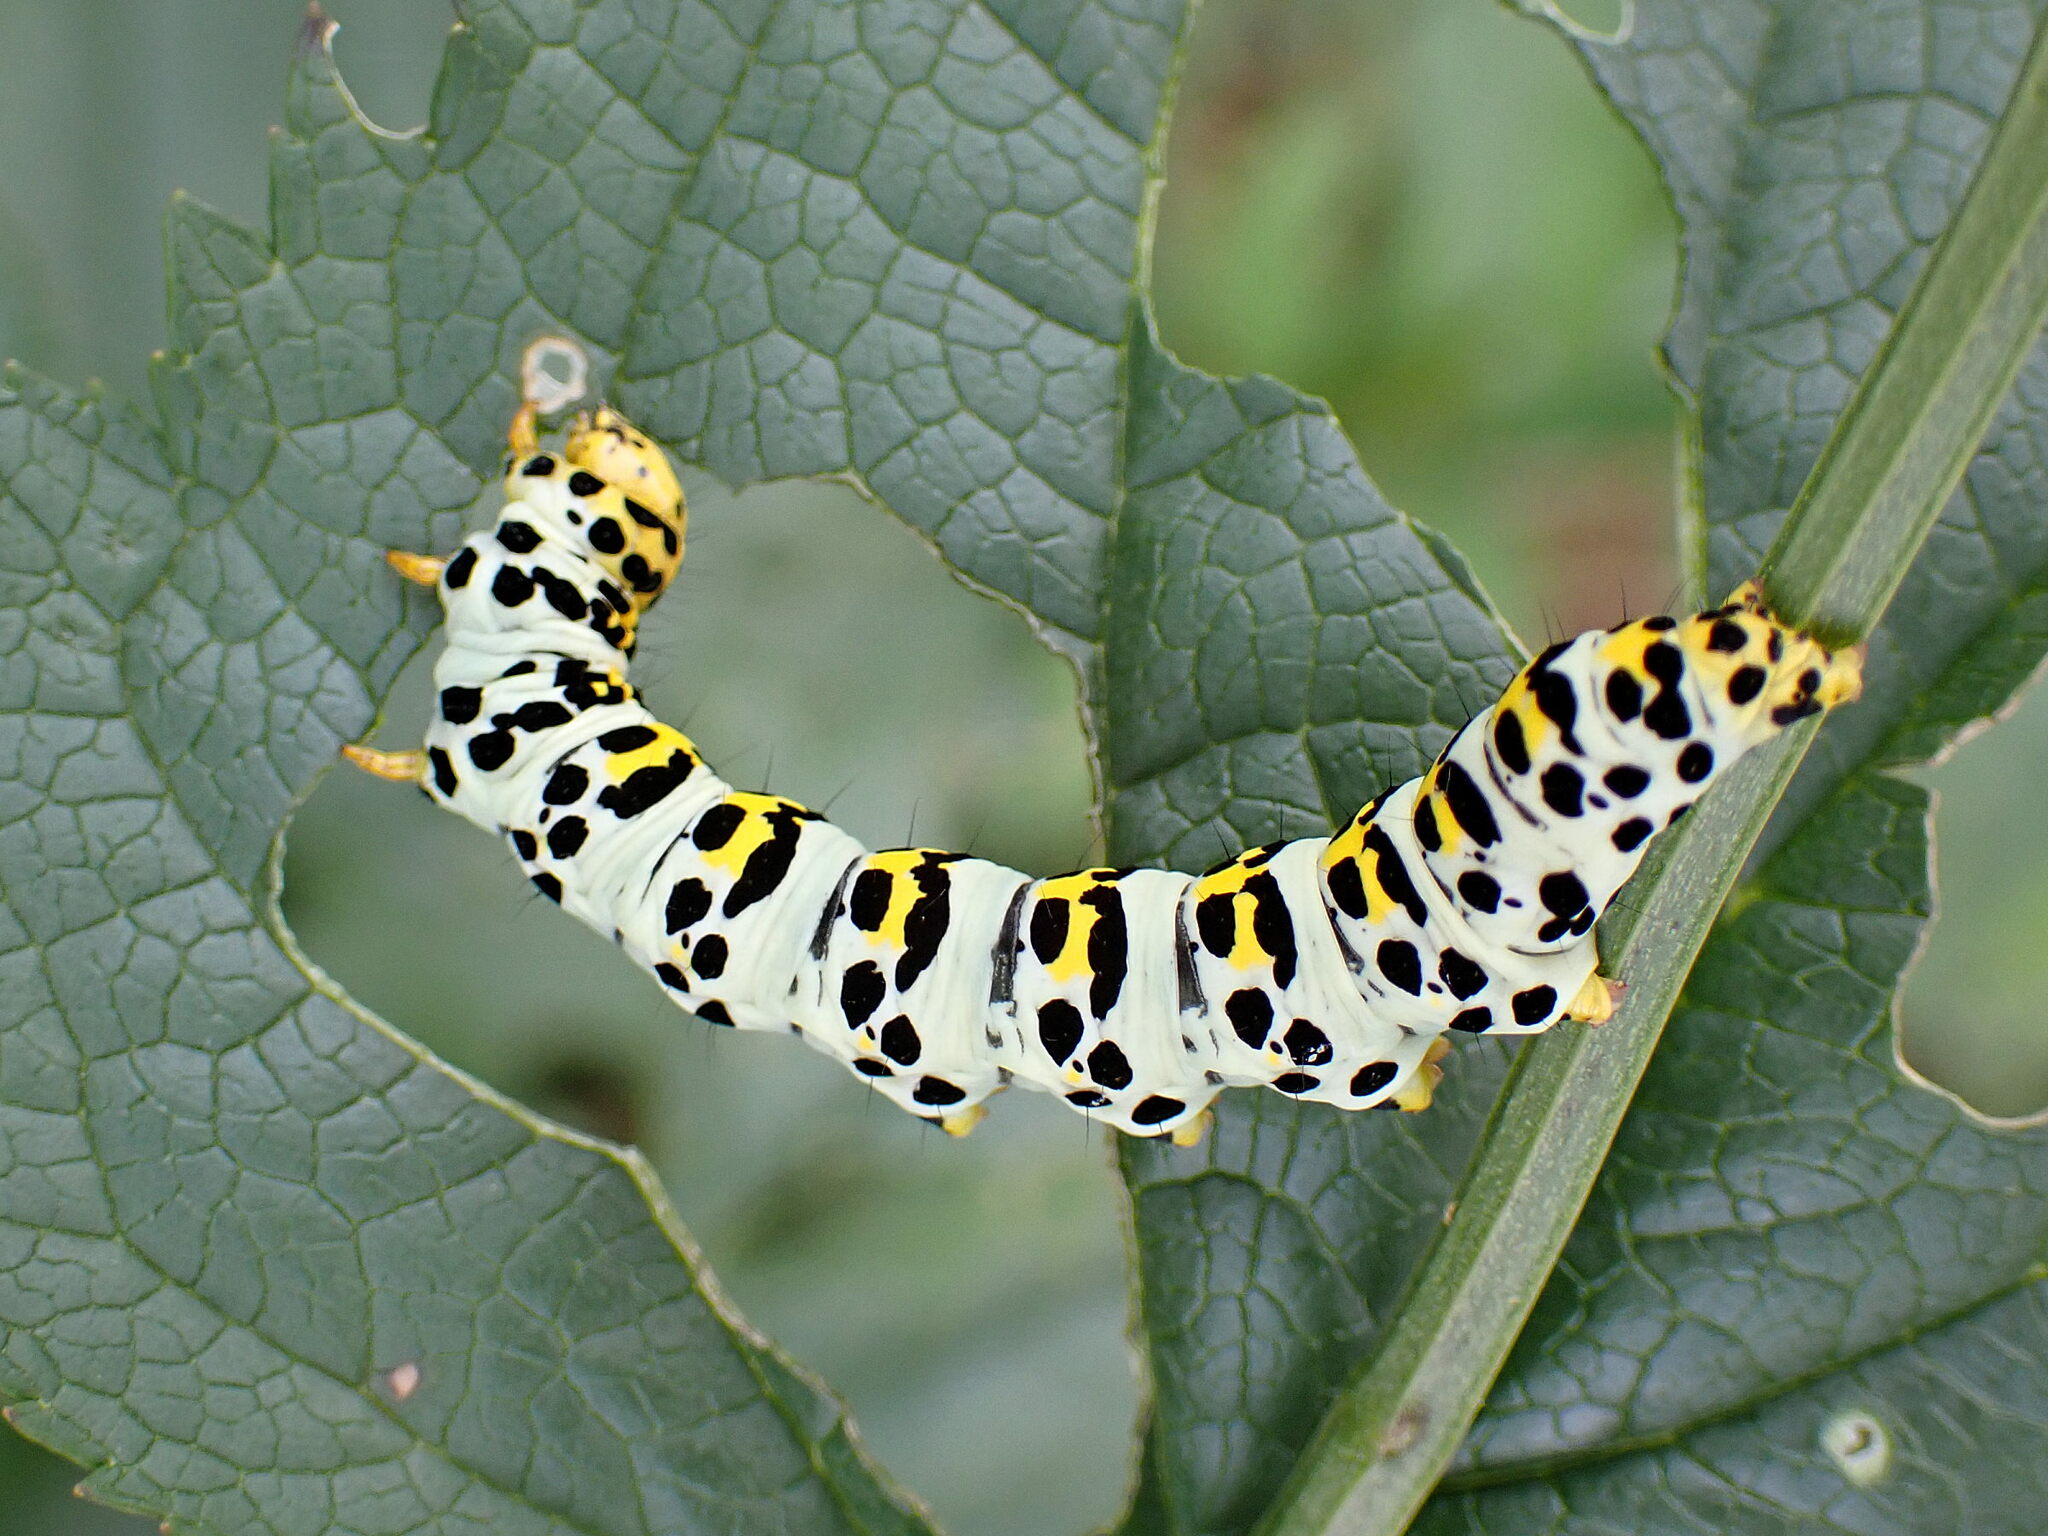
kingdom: Animalia
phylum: Arthropoda
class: Insecta
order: Lepidoptera
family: Noctuidae
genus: Shargacucullia
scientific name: Shargacucullia scrophulariae
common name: Water betony
